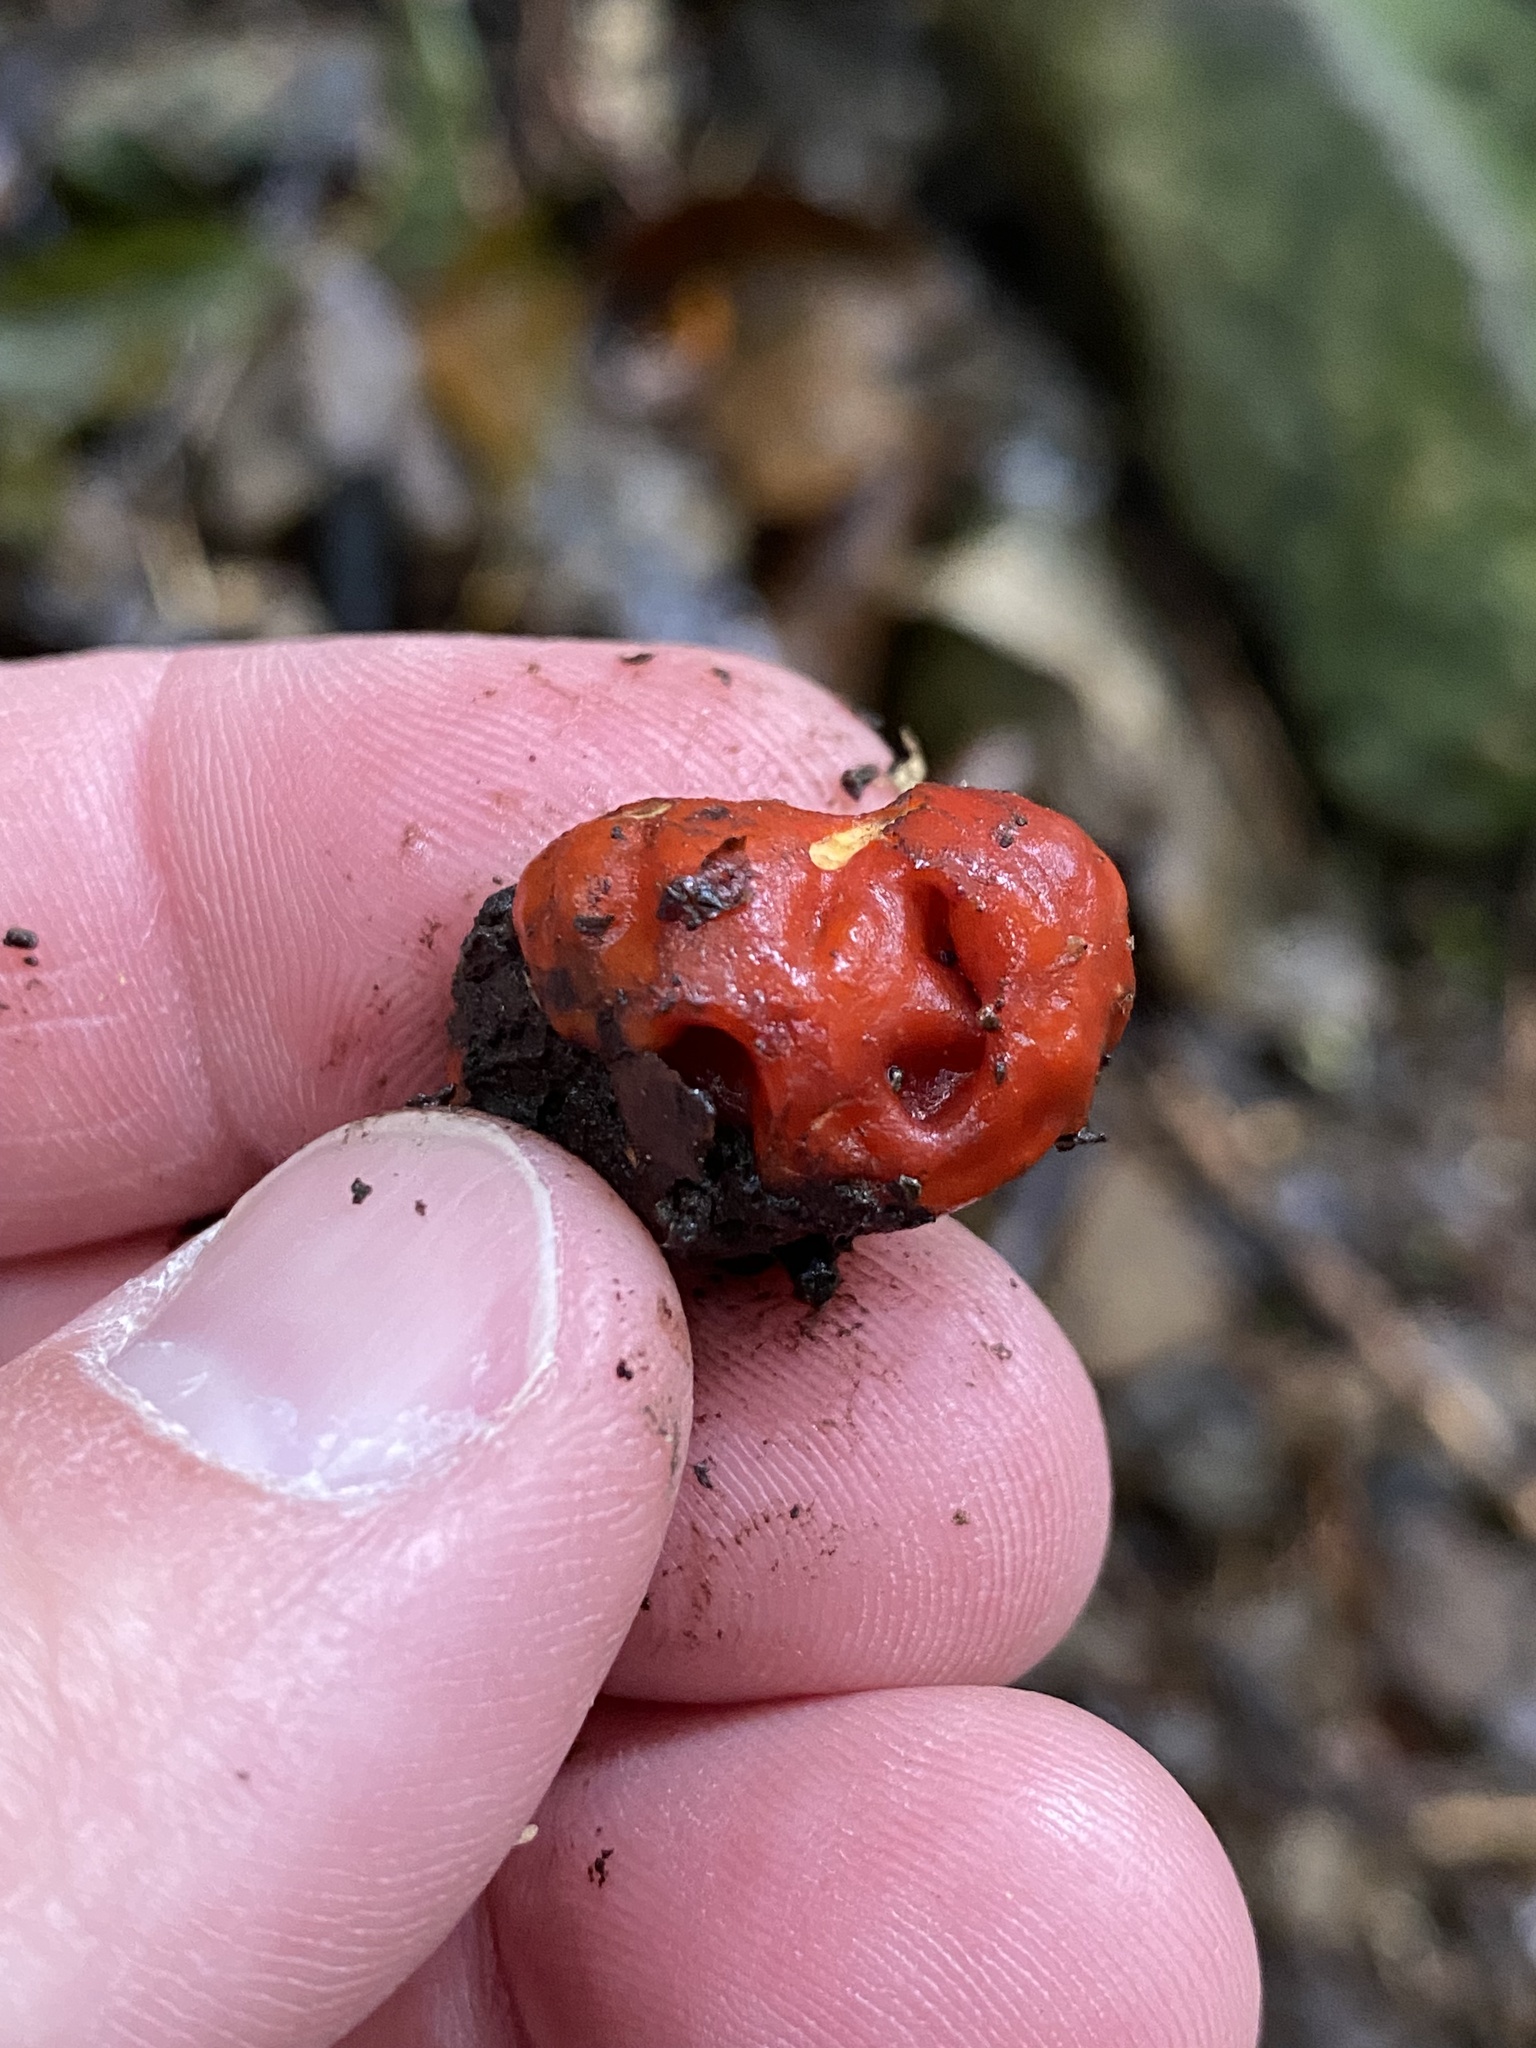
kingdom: Fungi
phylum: Ascomycota
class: Pezizomycetes
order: Pezizales
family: Pyronemataceae
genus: Paurocotylis
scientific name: Paurocotylis pila
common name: Scarlet berry truffle
